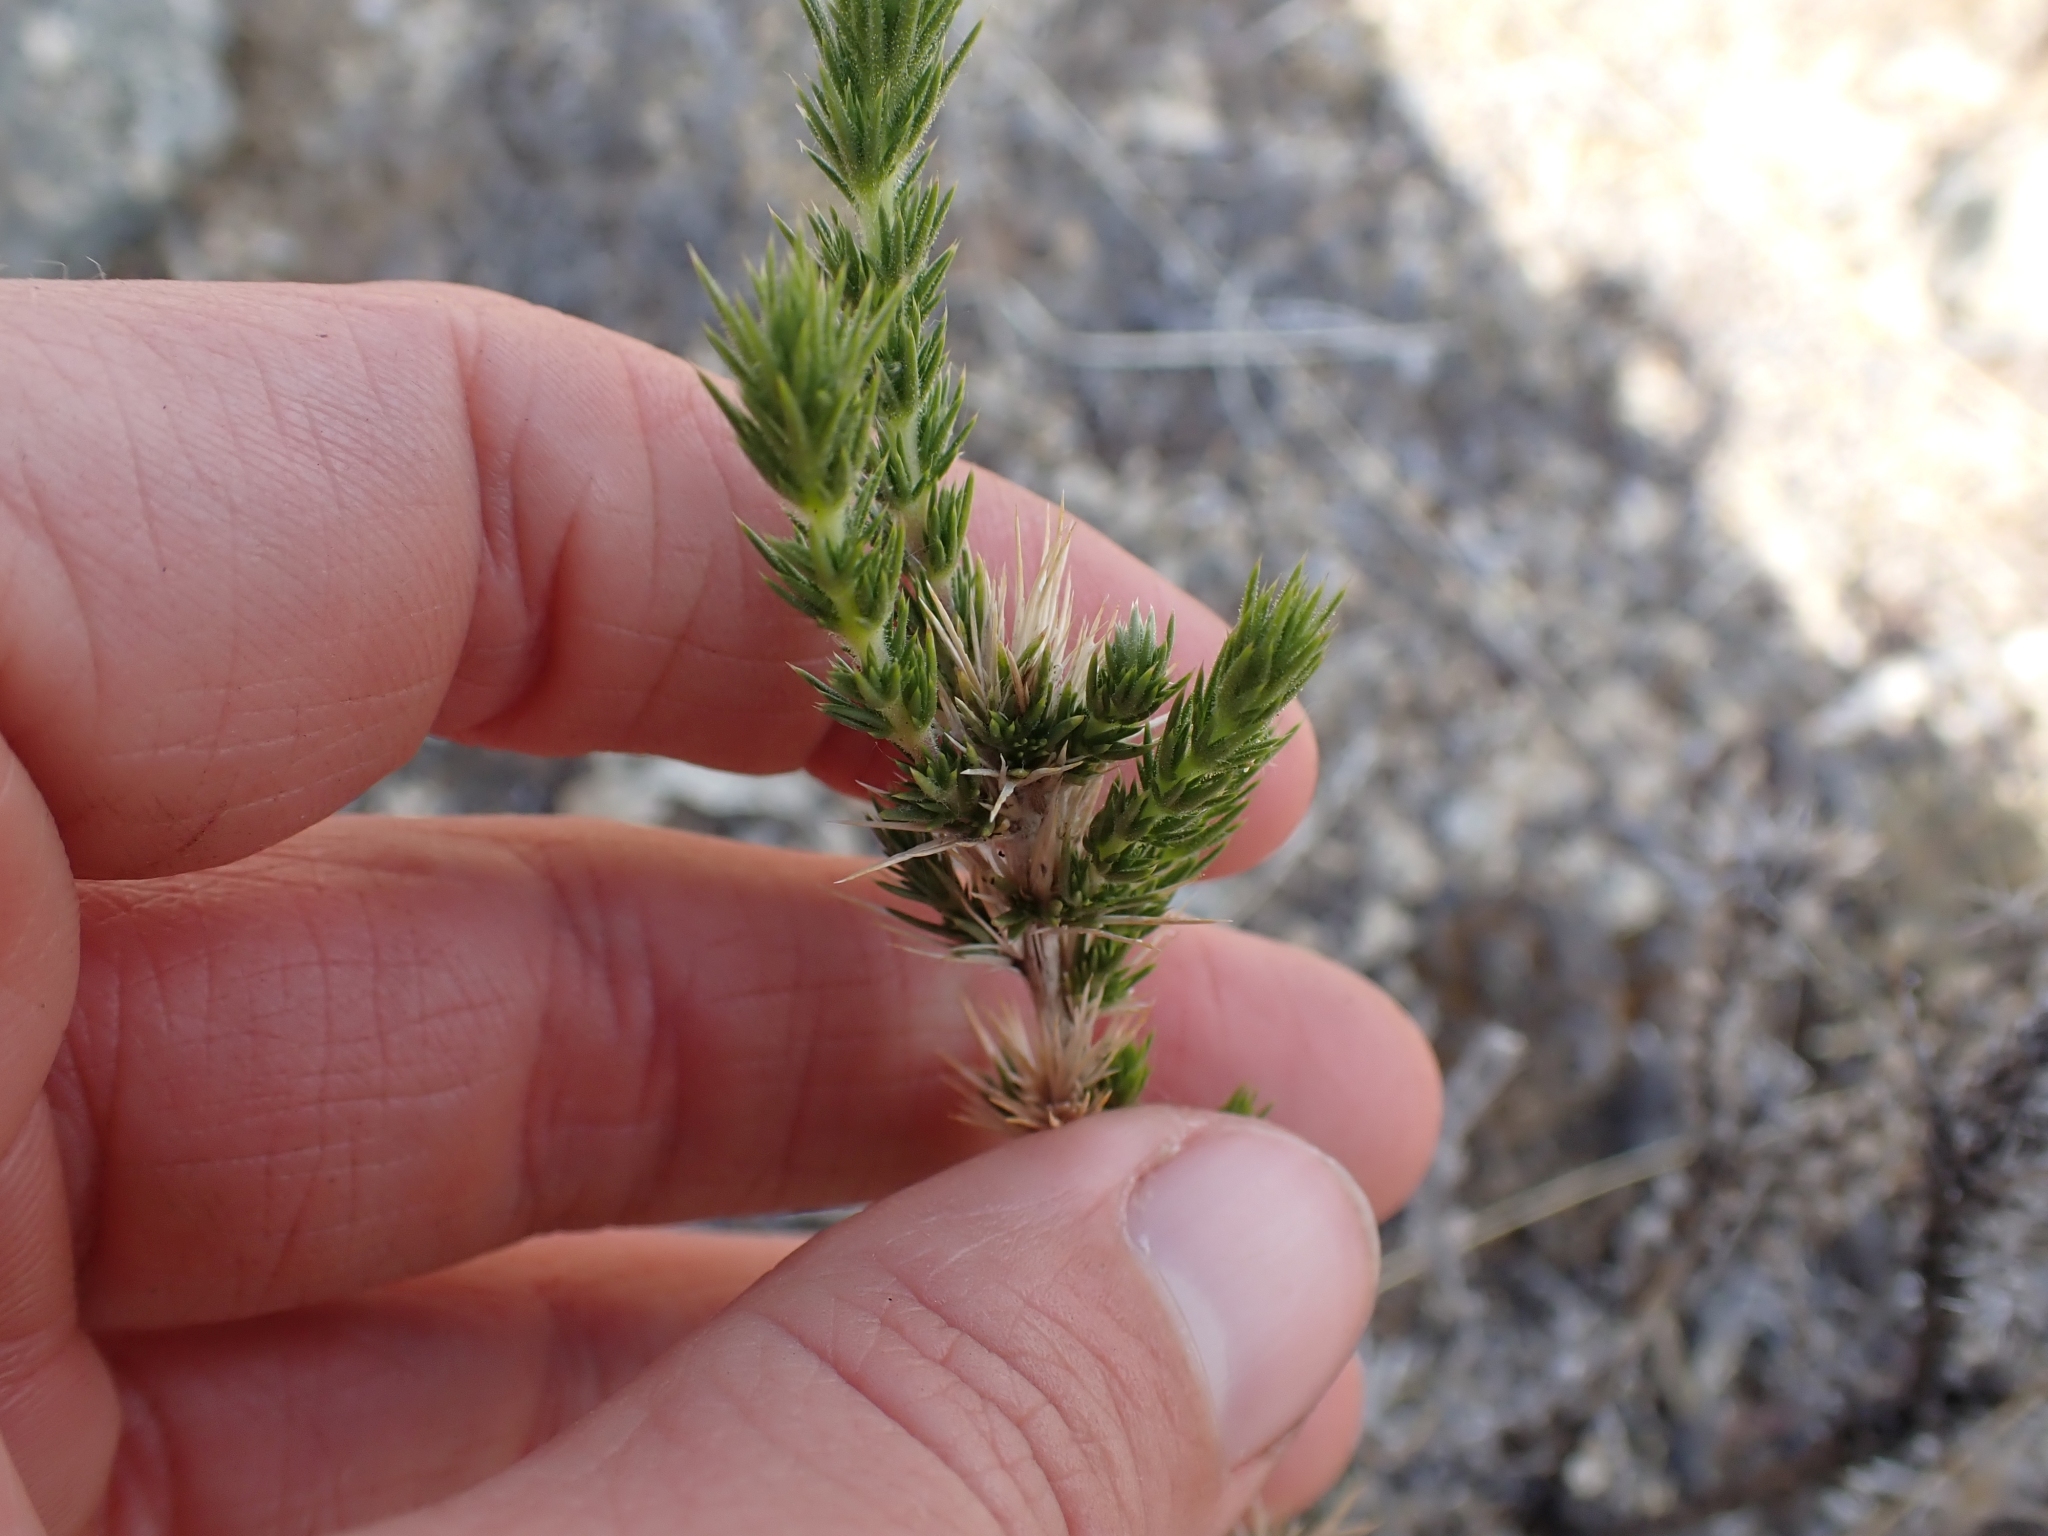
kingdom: Plantae
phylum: Tracheophyta
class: Magnoliopsida
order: Ericales
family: Polemoniaceae
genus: Linanthus
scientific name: Linanthus pungens
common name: Granite prickly phlox
